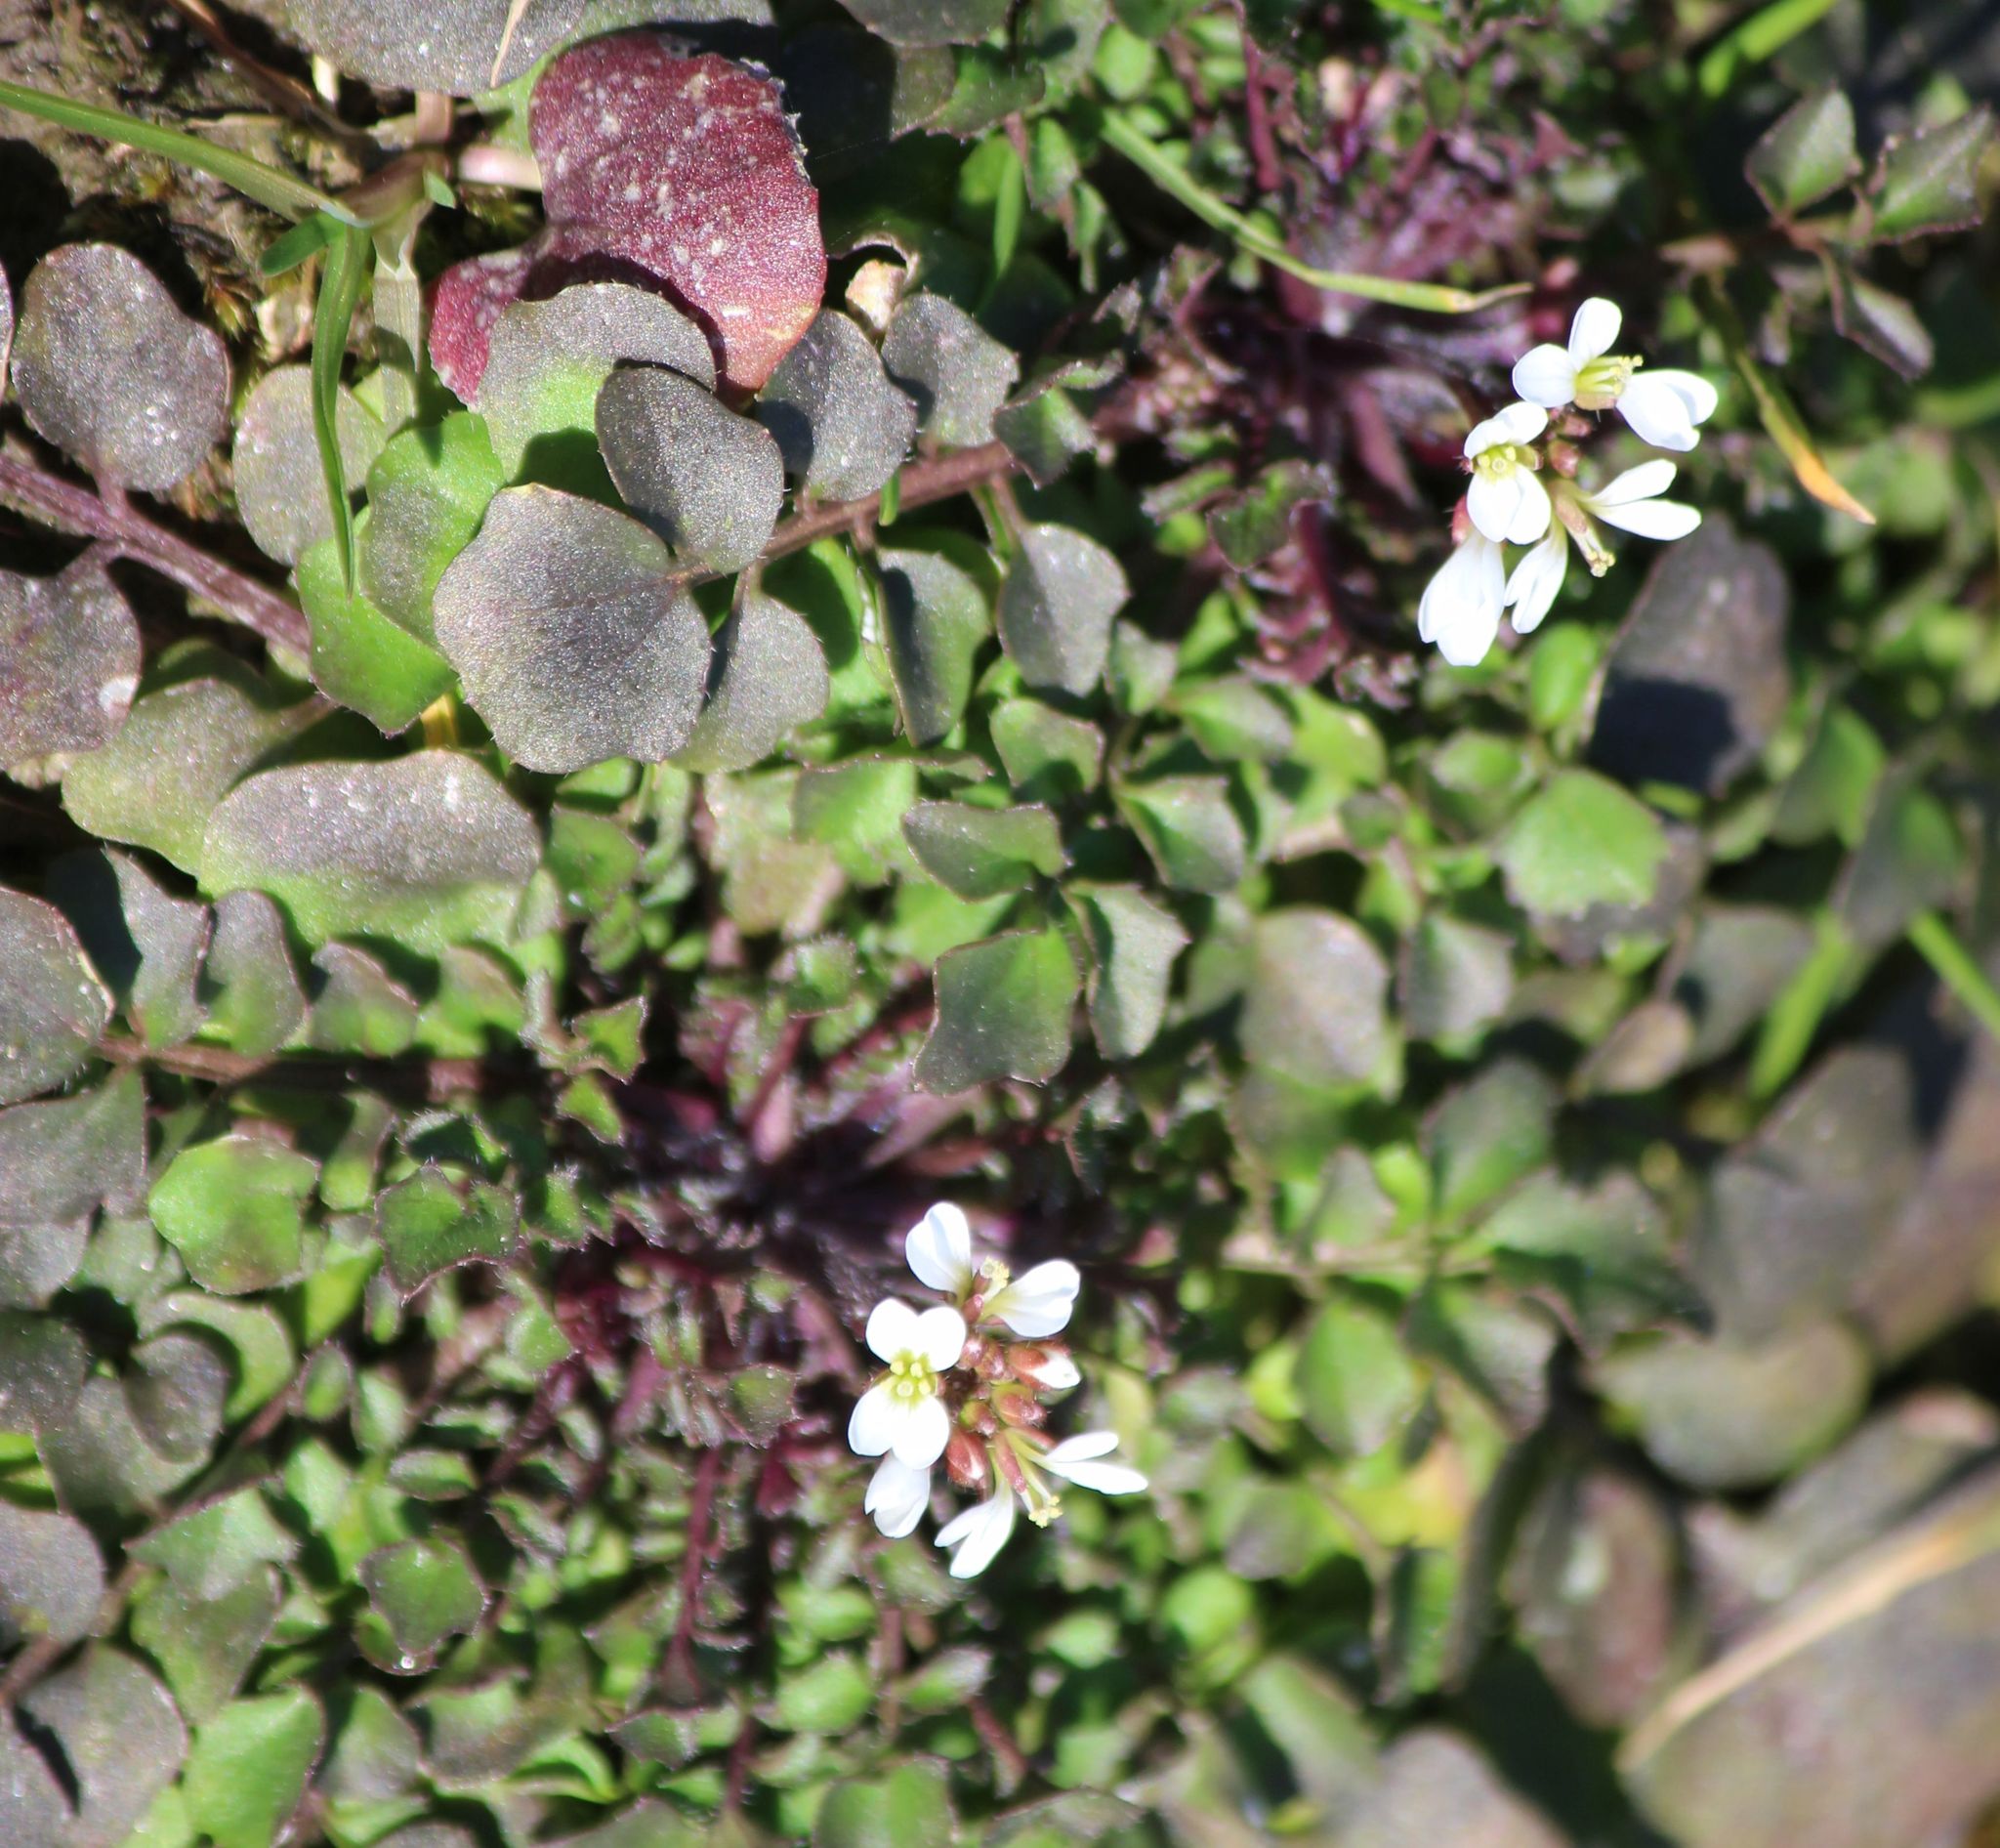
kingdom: Plantae
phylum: Tracheophyta
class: Magnoliopsida
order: Brassicales
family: Brassicaceae
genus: Cardamine
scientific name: Cardamine hirsuta
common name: Hairy bittercress
